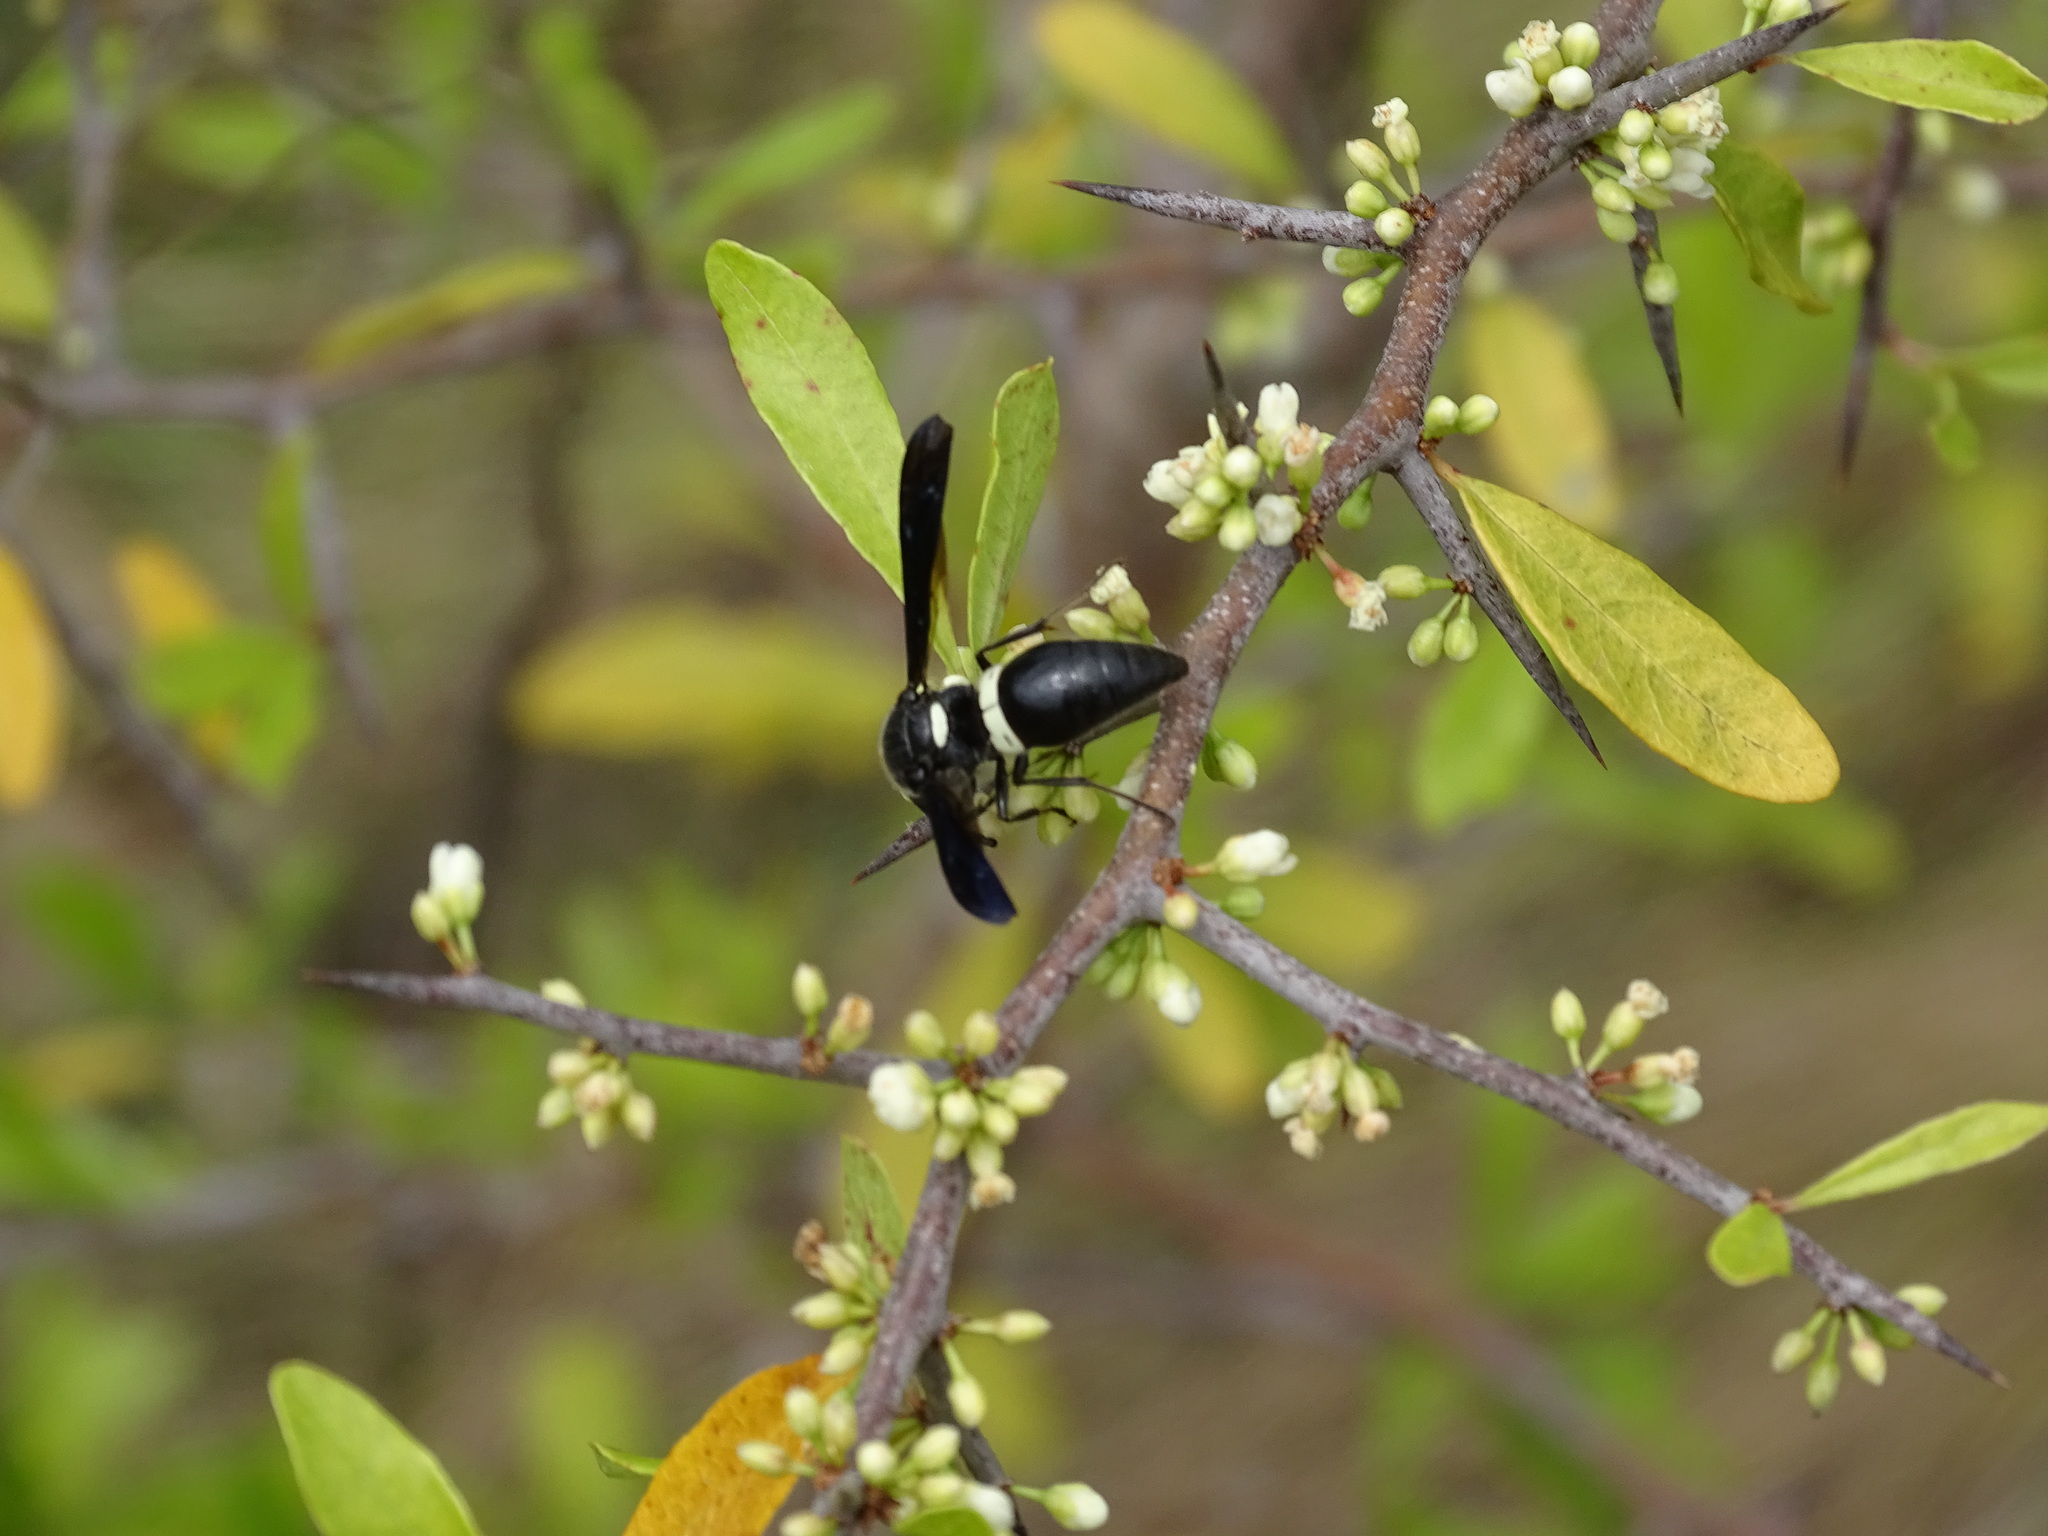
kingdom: Animalia
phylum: Arthropoda
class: Insecta
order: Hymenoptera
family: Eumenidae
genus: Monobia
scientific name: Monobia quadridens
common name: Four-toothed mason wasp
